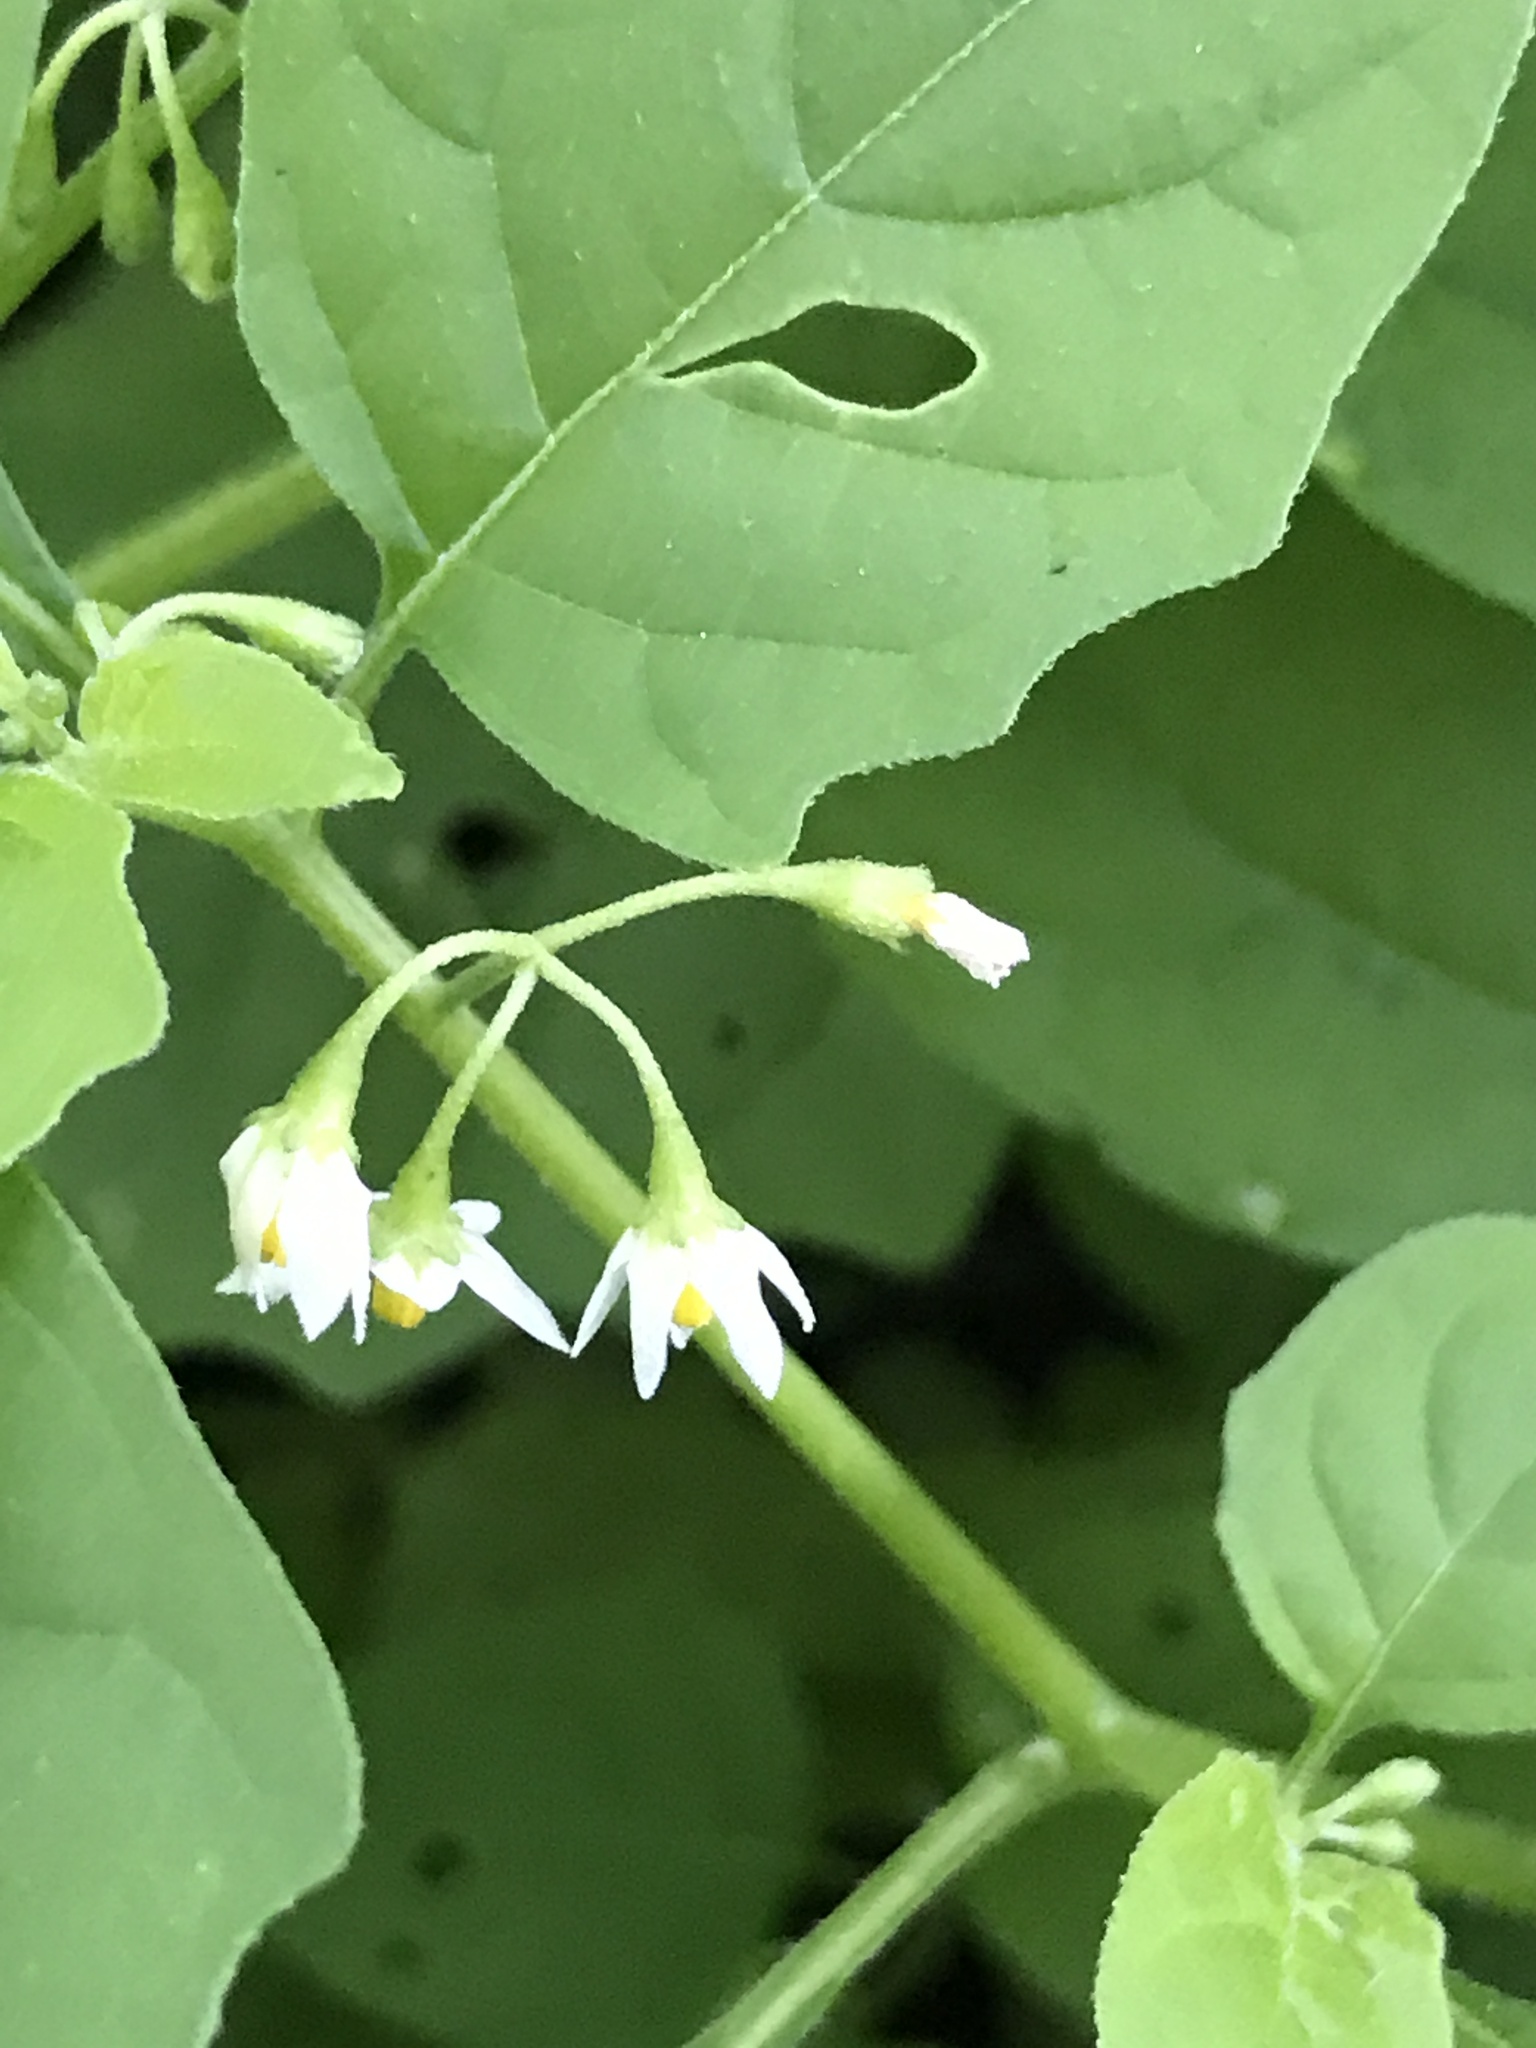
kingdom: Plantae
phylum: Tracheophyta
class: Magnoliopsida
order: Solanales
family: Solanaceae
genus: Solanum
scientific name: Solanum emulans
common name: Eastern black nightshade
